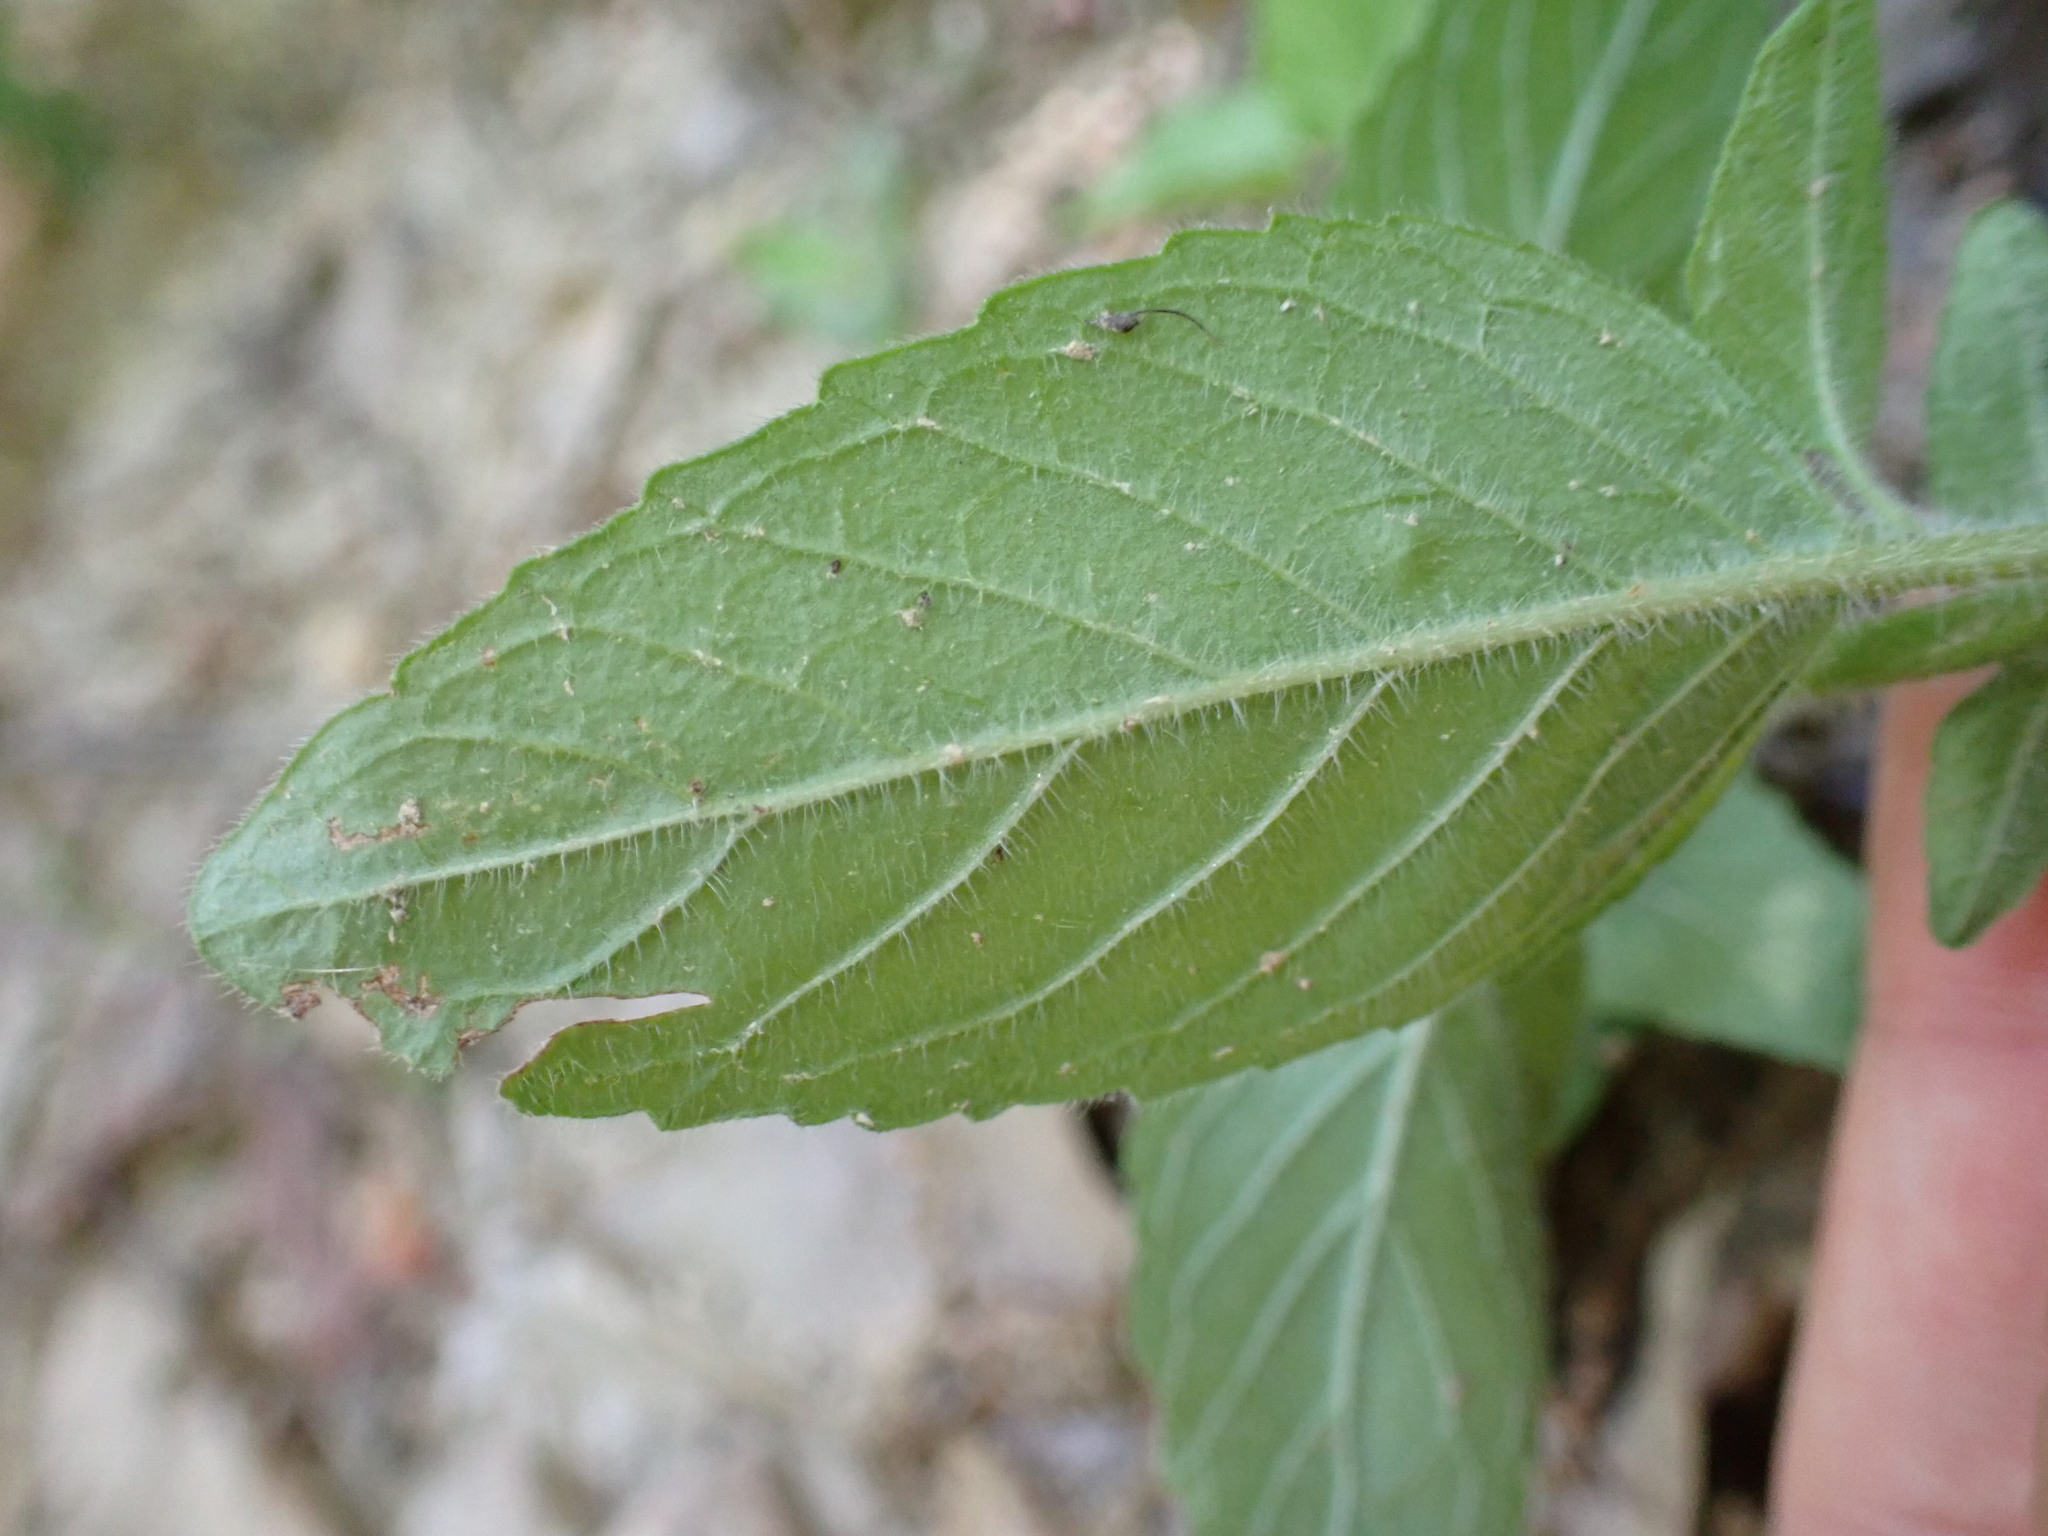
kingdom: Plantae
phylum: Tracheophyta
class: Magnoliopsida
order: Lamiales
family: Lamiaceae
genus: Clinopodium
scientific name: Clinopodium vulgare
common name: Wild basil
